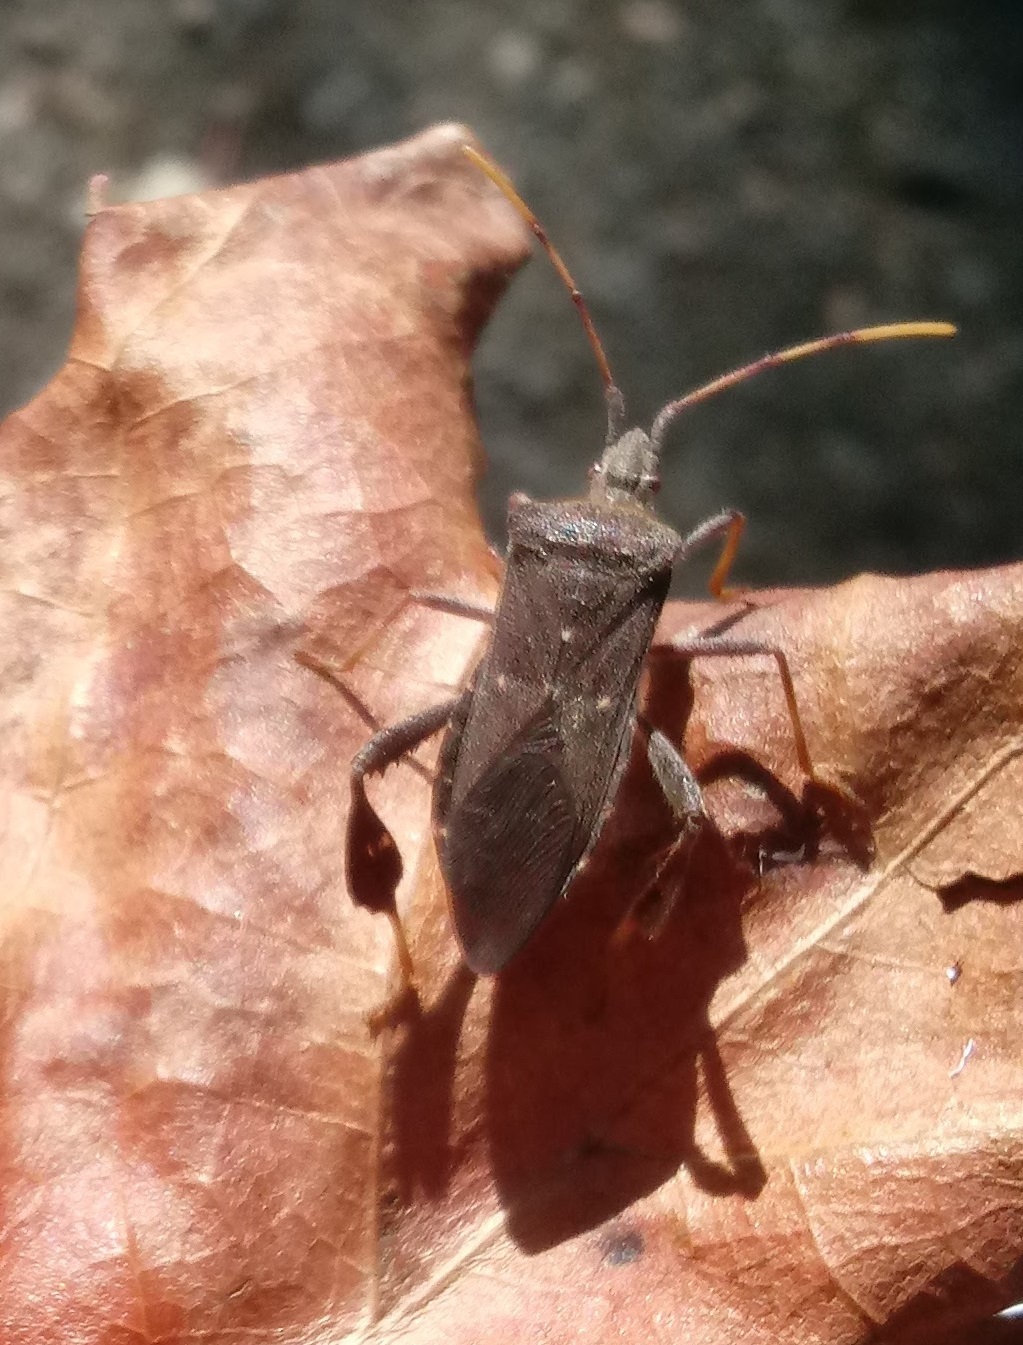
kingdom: Animalia
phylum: Arthropoda
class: Insecta
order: Hemiptera
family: Coreidae
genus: Leptoglossus
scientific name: Leptoglossus oppositus
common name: Northern leaf-footed bug
